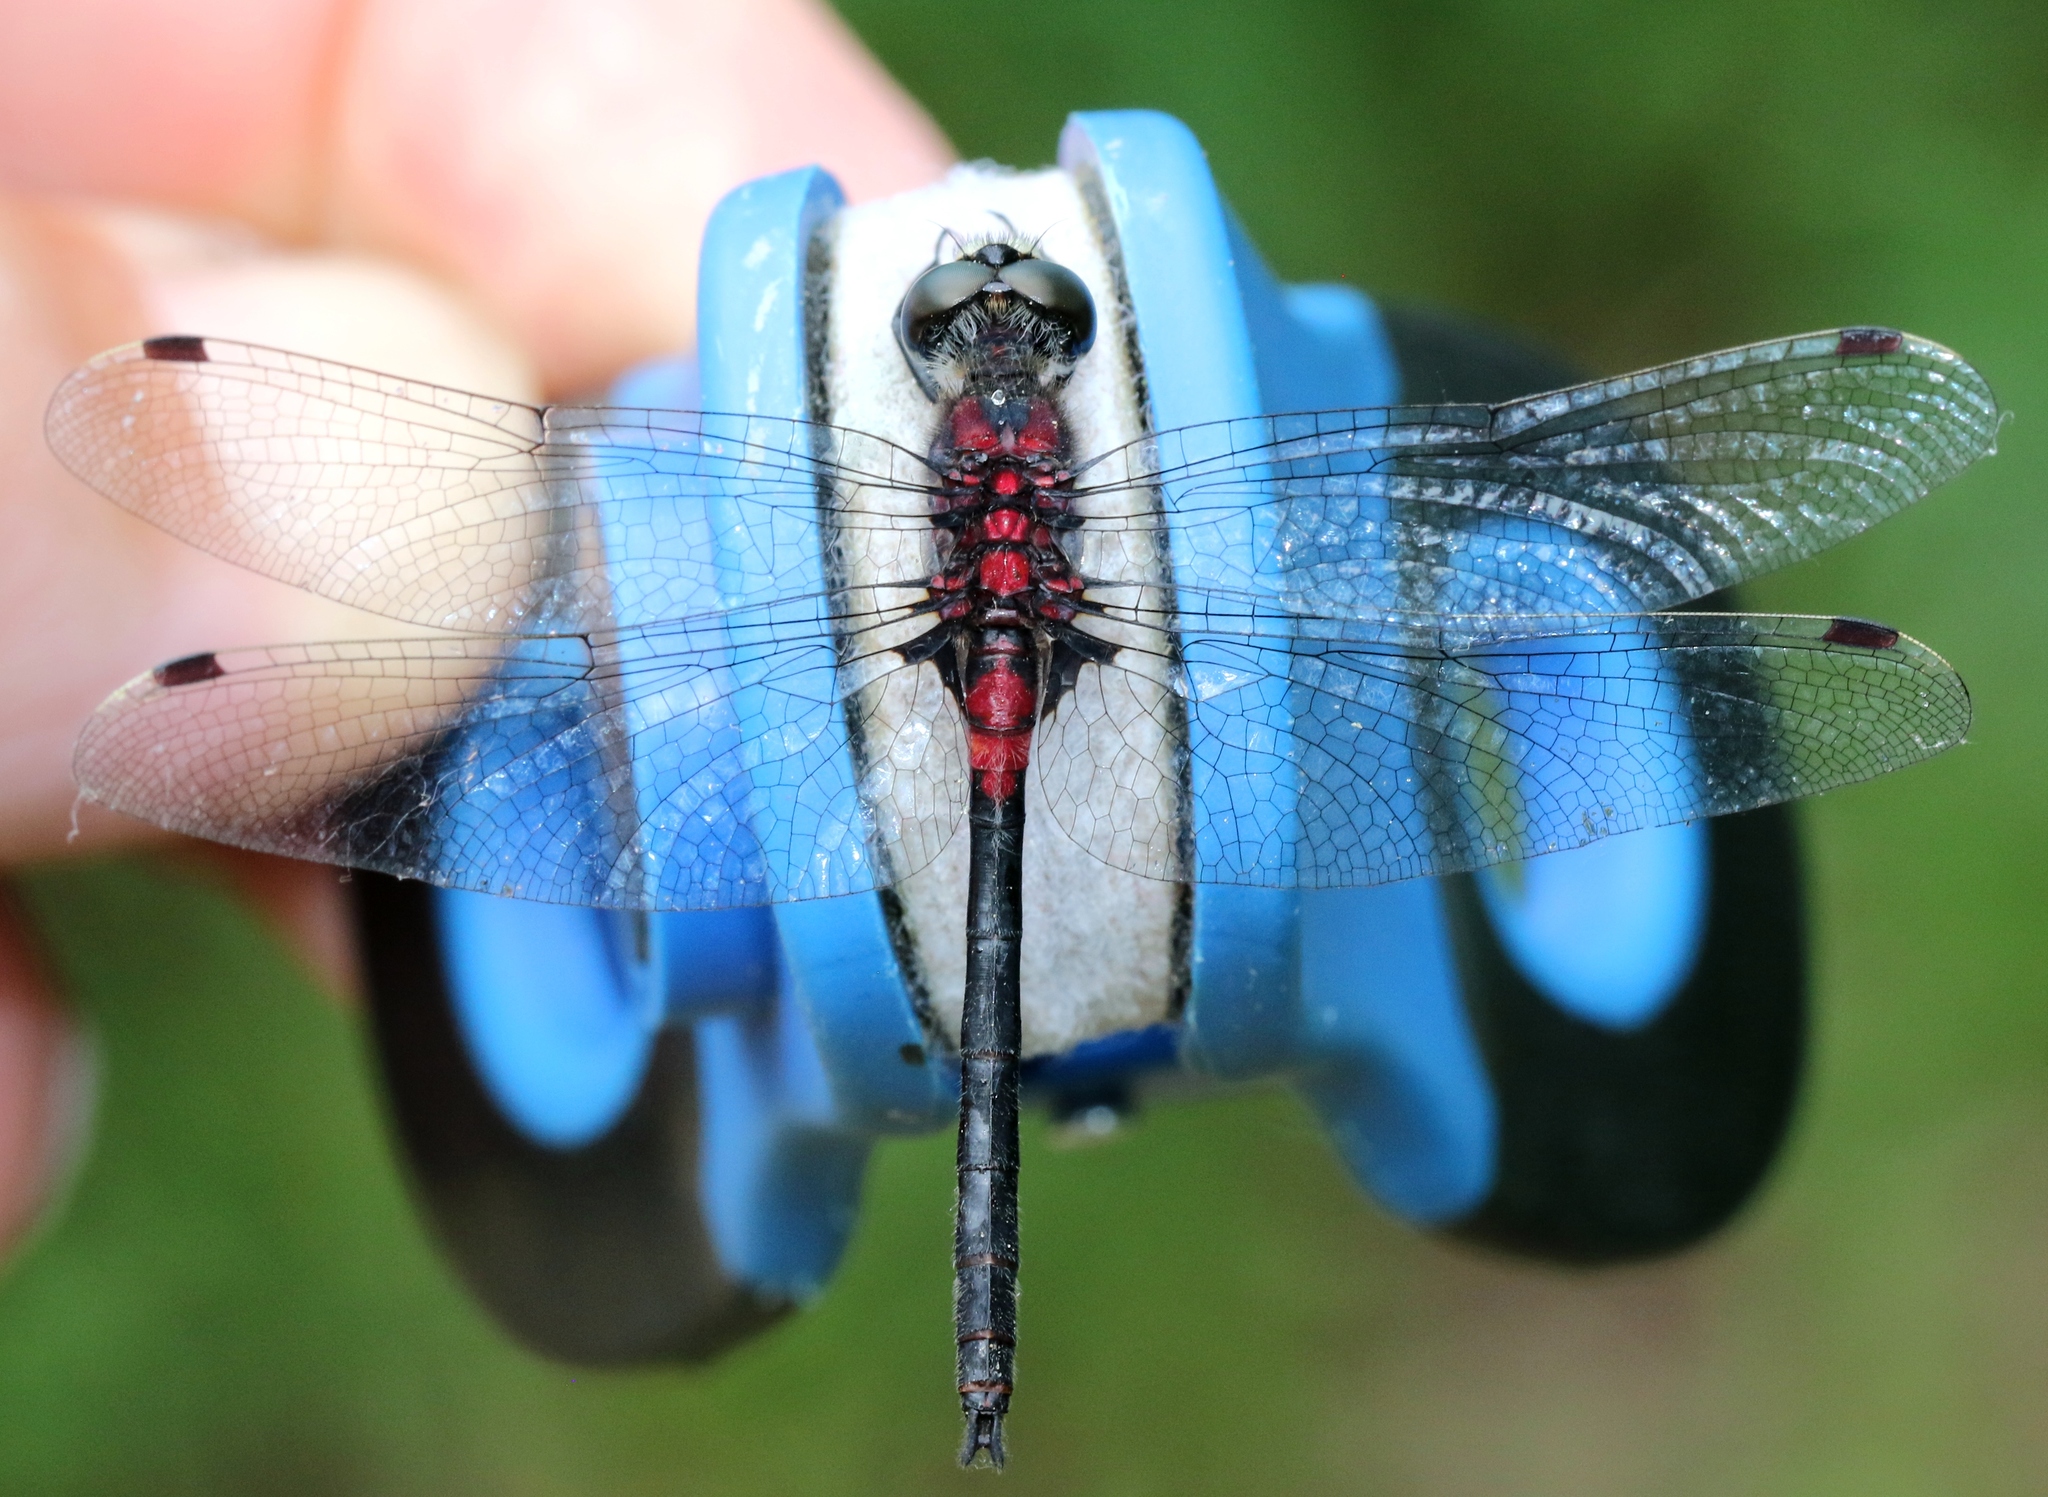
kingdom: Animalia
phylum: Arthropoda
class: Insecta
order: Odonata
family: Libellulidae
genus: Leucorrhinia
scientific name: Leucorrhinia proxima
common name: Belted whiteface
